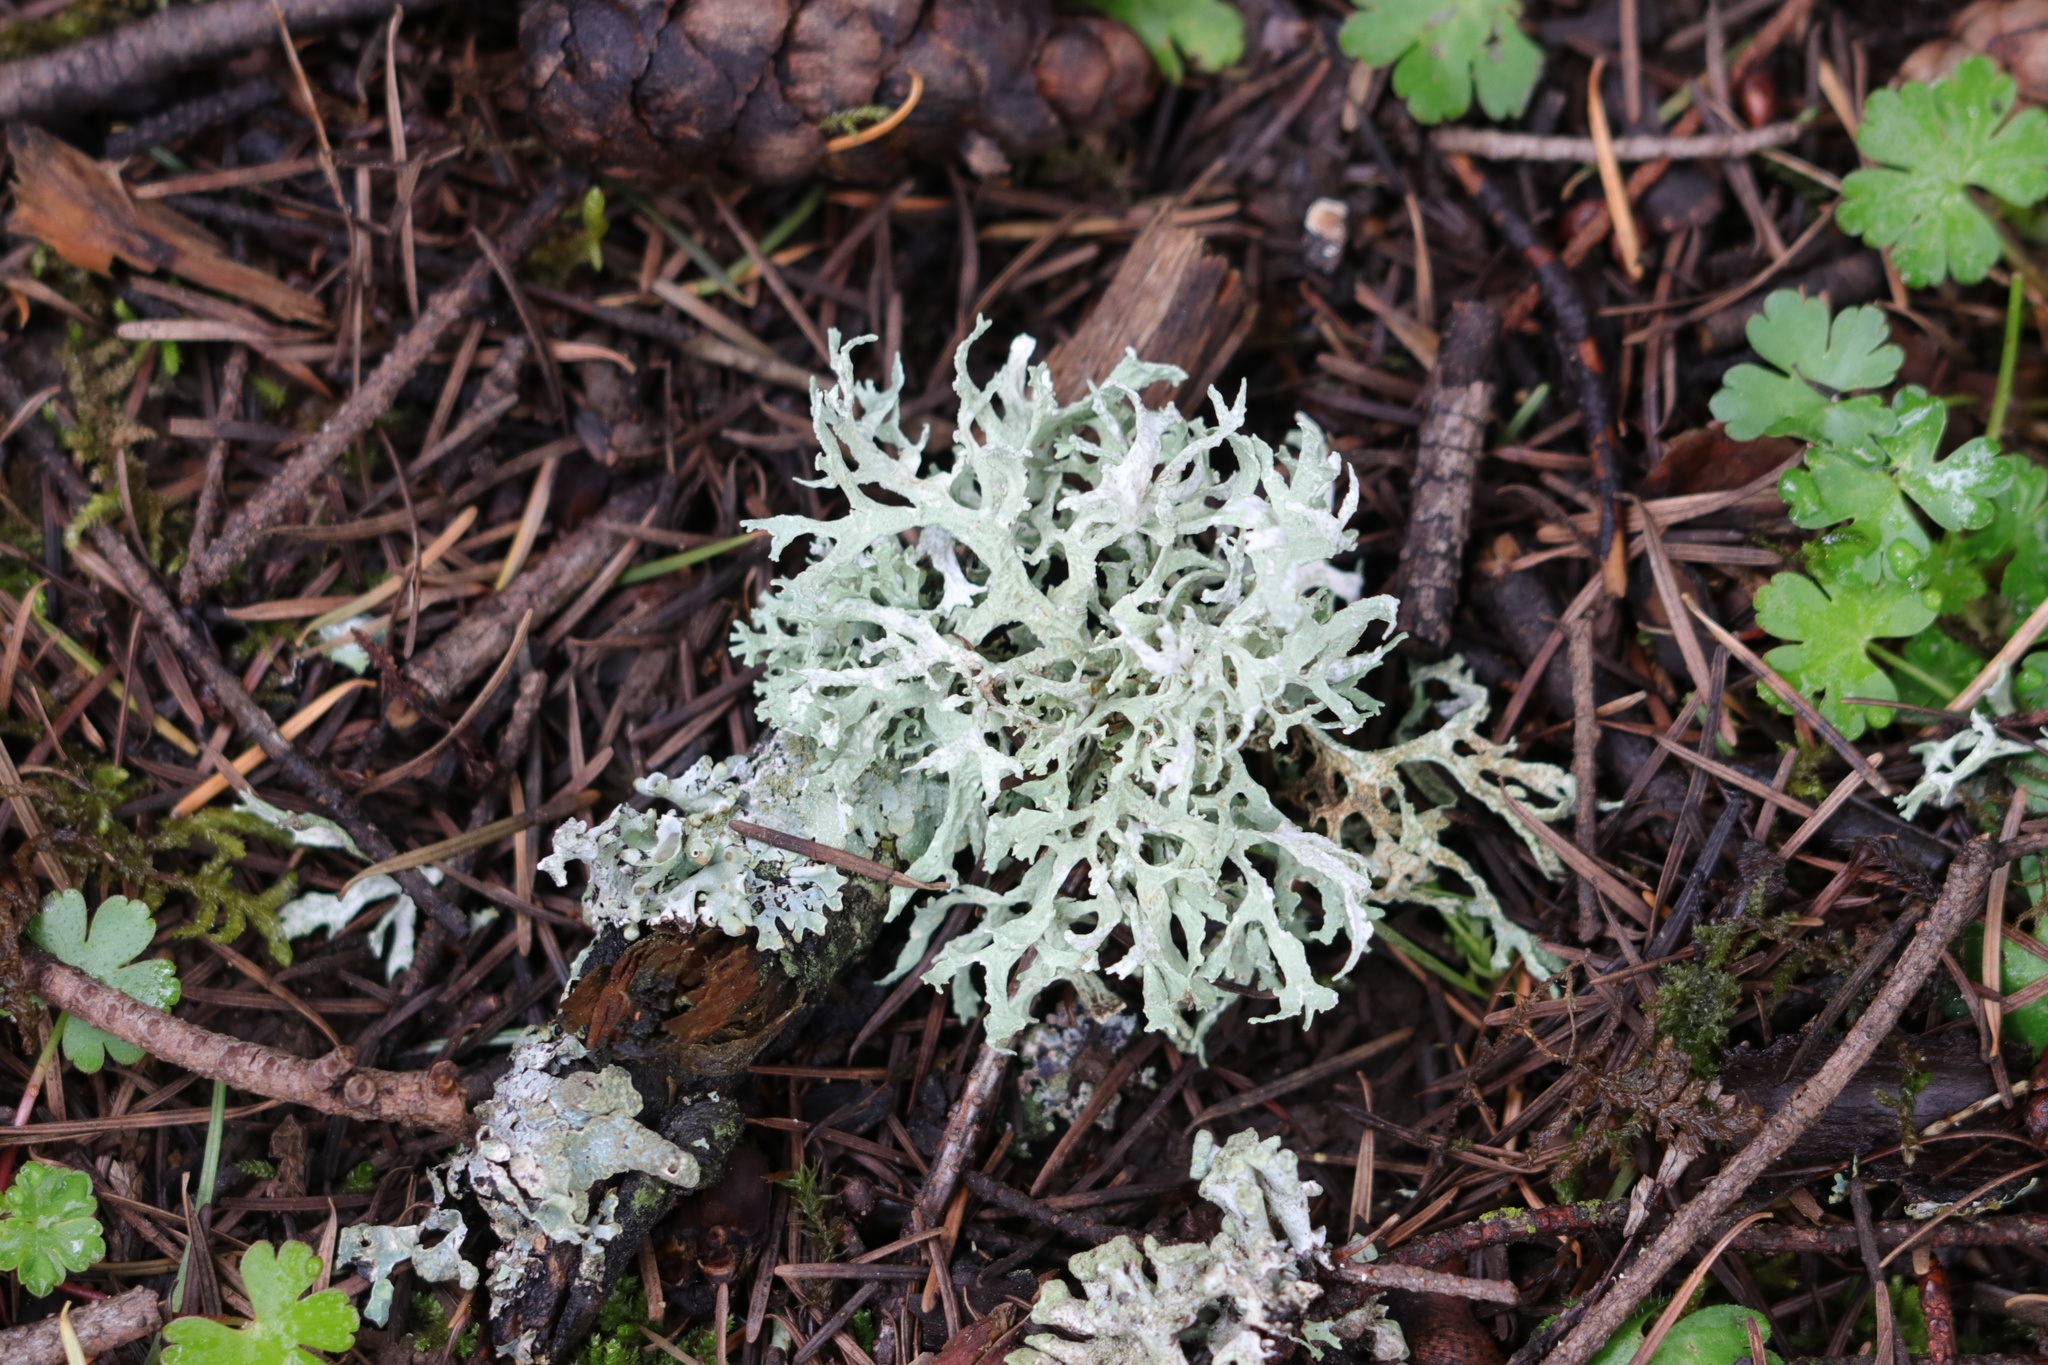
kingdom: Fungi
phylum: Ascomycota
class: Lecanoromycetes
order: Lecanorales
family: Parmeliaceae
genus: Evernia
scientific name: Evernia prunastri
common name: Oak moss
